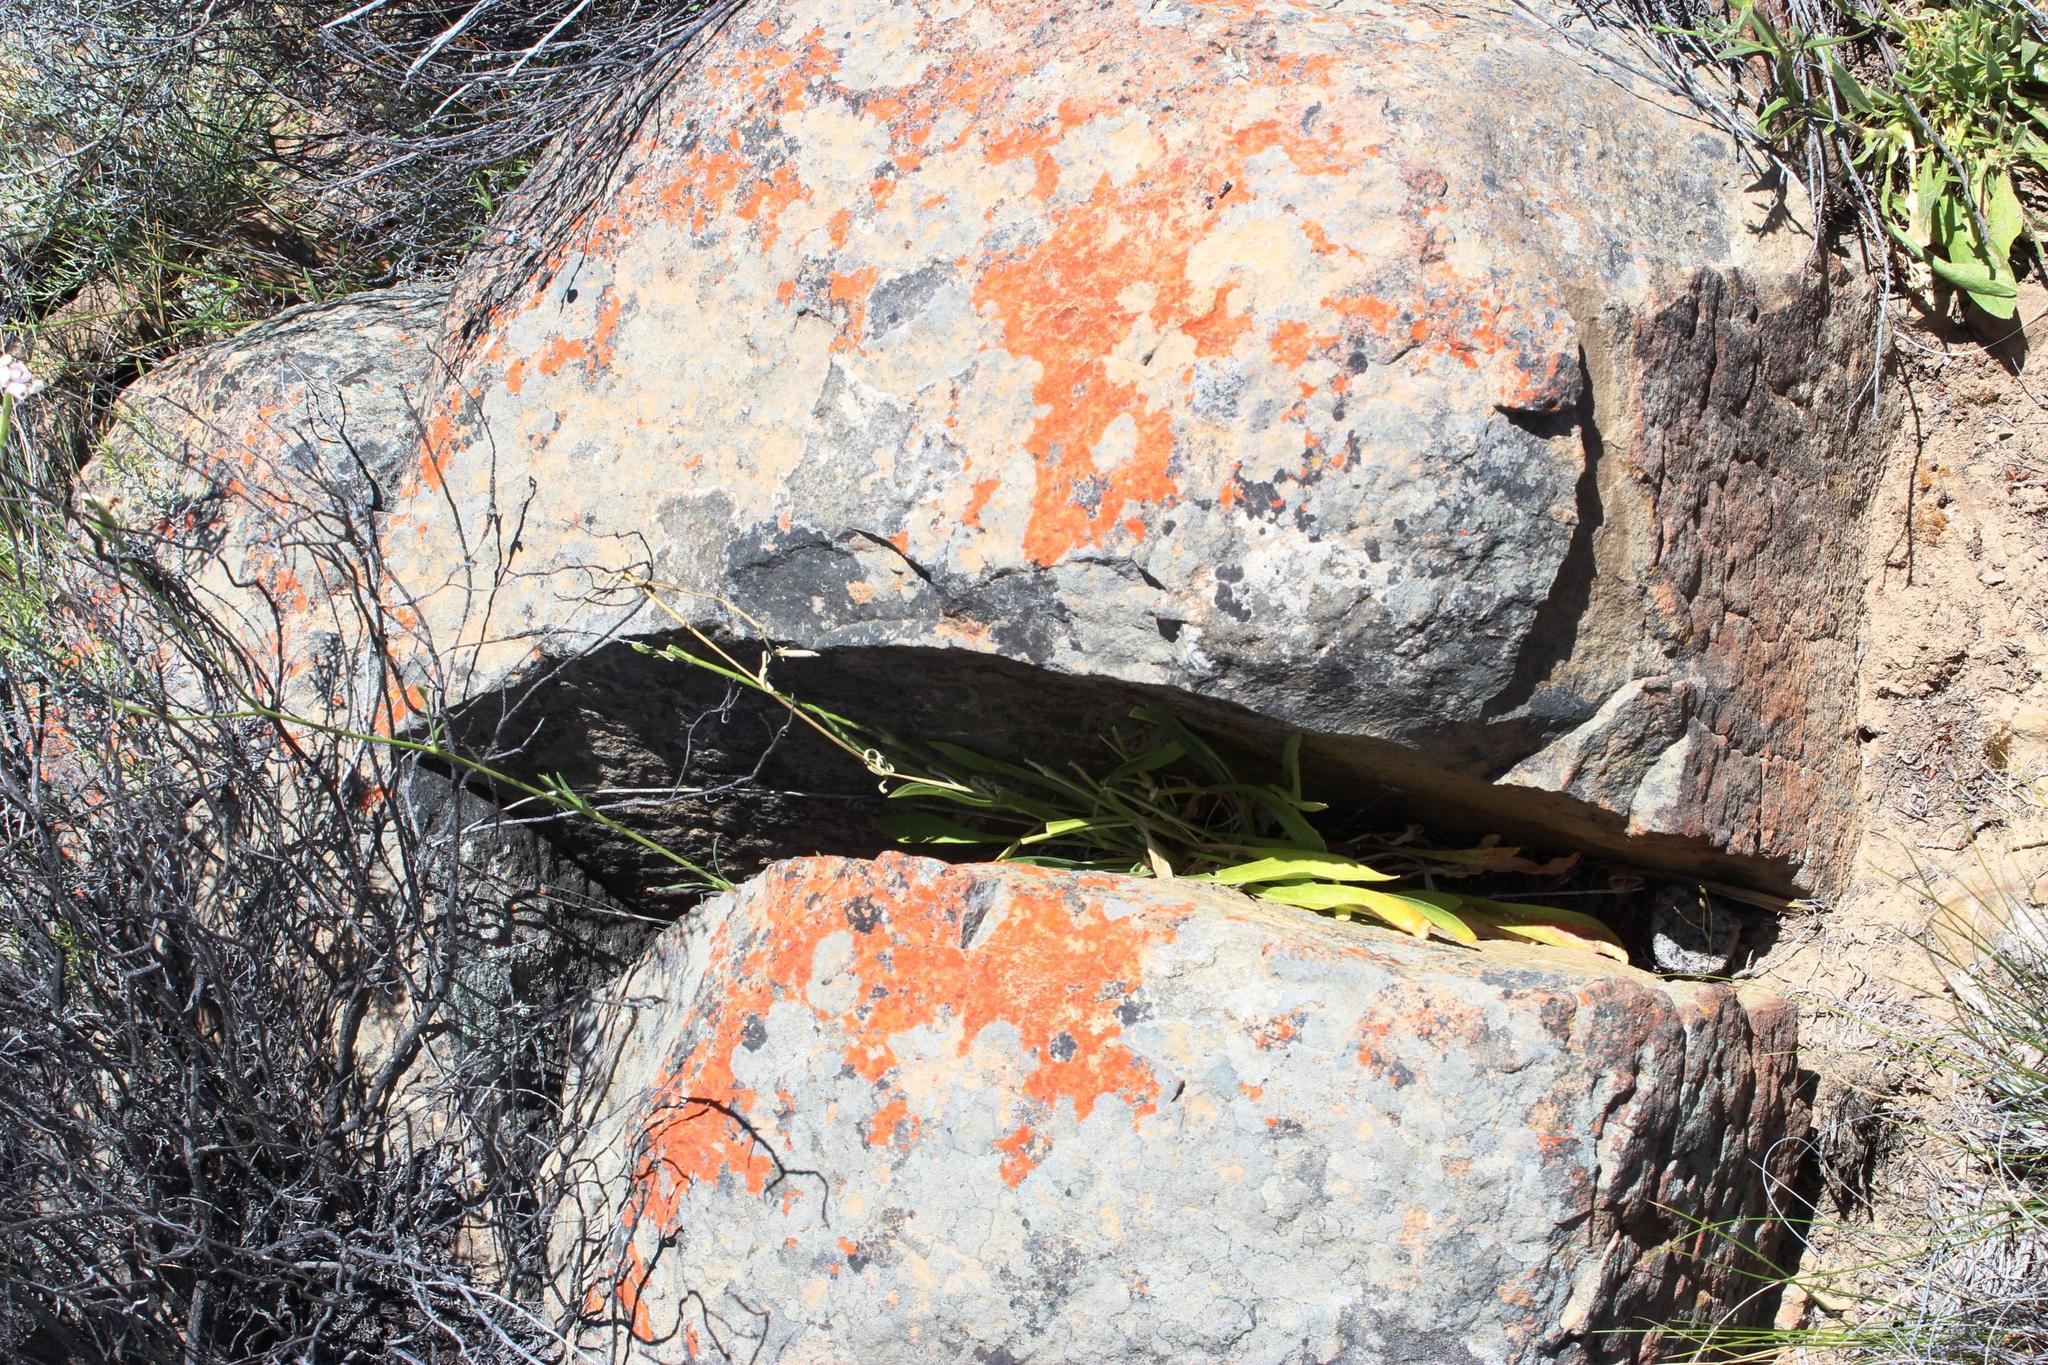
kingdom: Plantae
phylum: Tracheophyta
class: Magnoliopsida
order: Caryophyllales
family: Caryophyllaceae
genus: Silene
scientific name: Silene undulata
